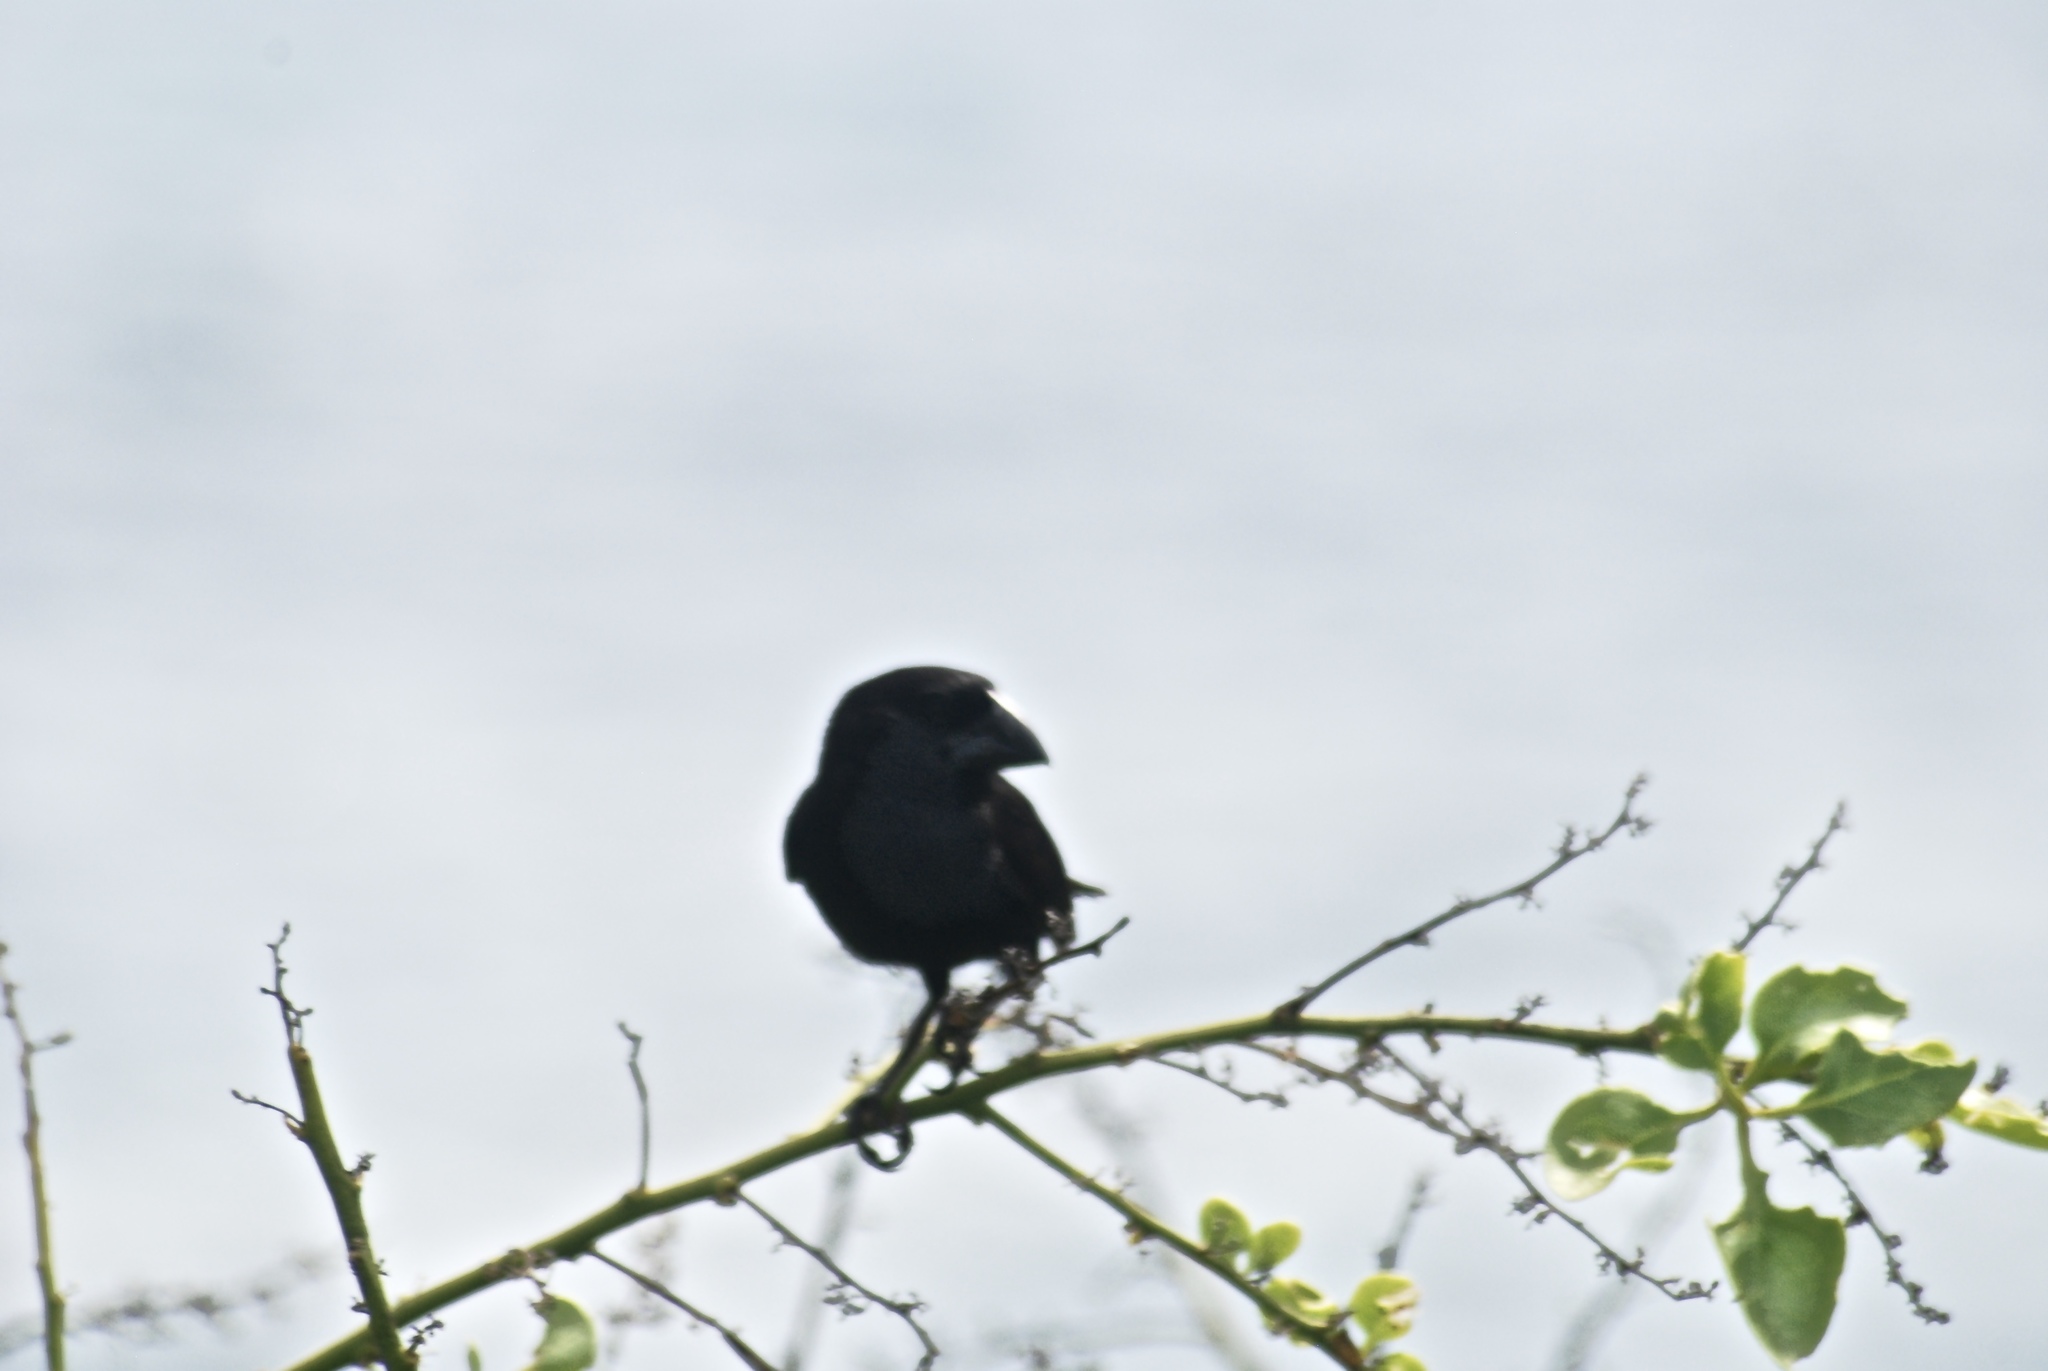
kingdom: Animalia
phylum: Chordata
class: Aves
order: Passeriformes
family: Thraupidae
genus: Geospiza
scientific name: Geospiza conirostris
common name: Large cactus finch
